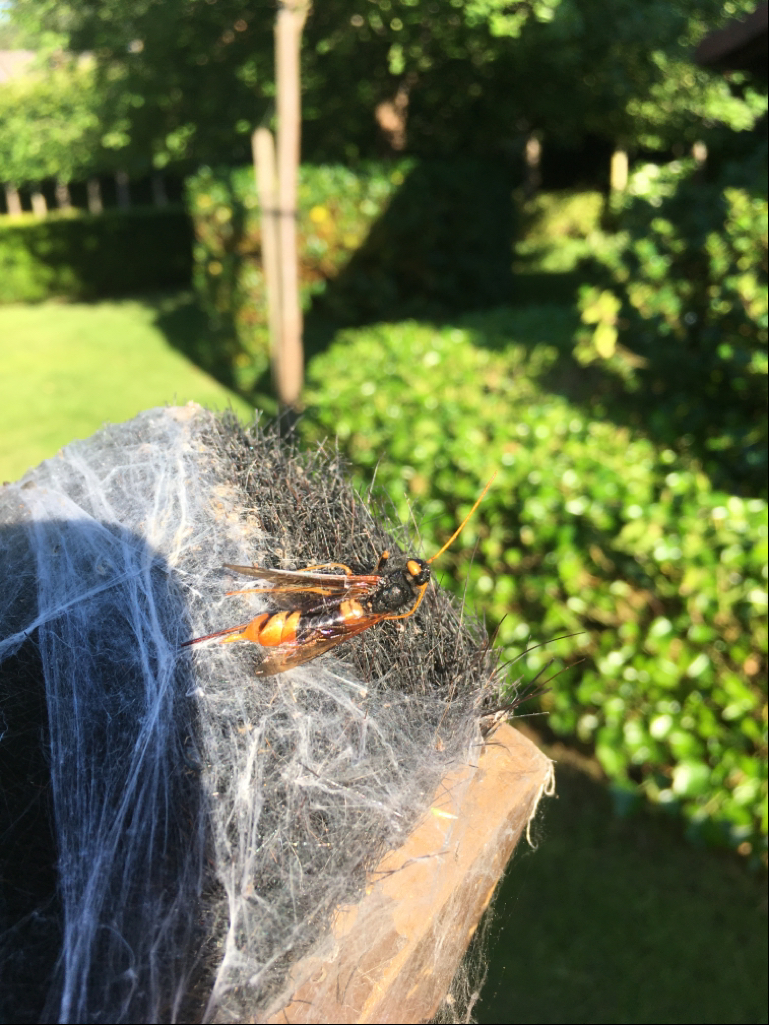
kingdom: Animalia
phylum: Arthropoda
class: Insecta
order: Hymenoptera
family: Siricidae
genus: Urocerus
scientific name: Urocerus gigas
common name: Giant woodwasp
